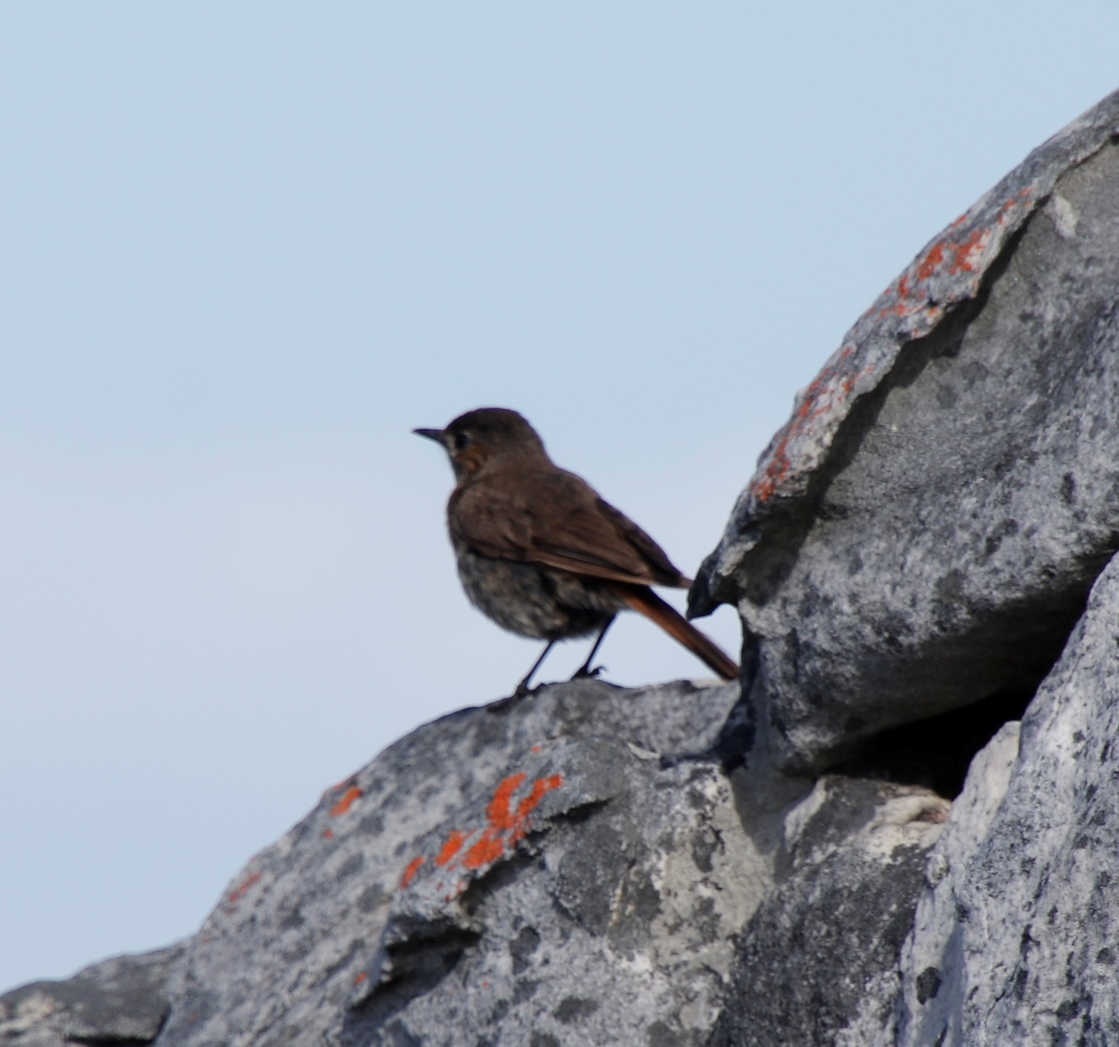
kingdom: Animalia
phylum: Chordata
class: Aves
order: Passeriformes
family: Muscicapidae
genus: Oenanthe
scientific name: Oenanthe familiaris
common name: Familiar chat
